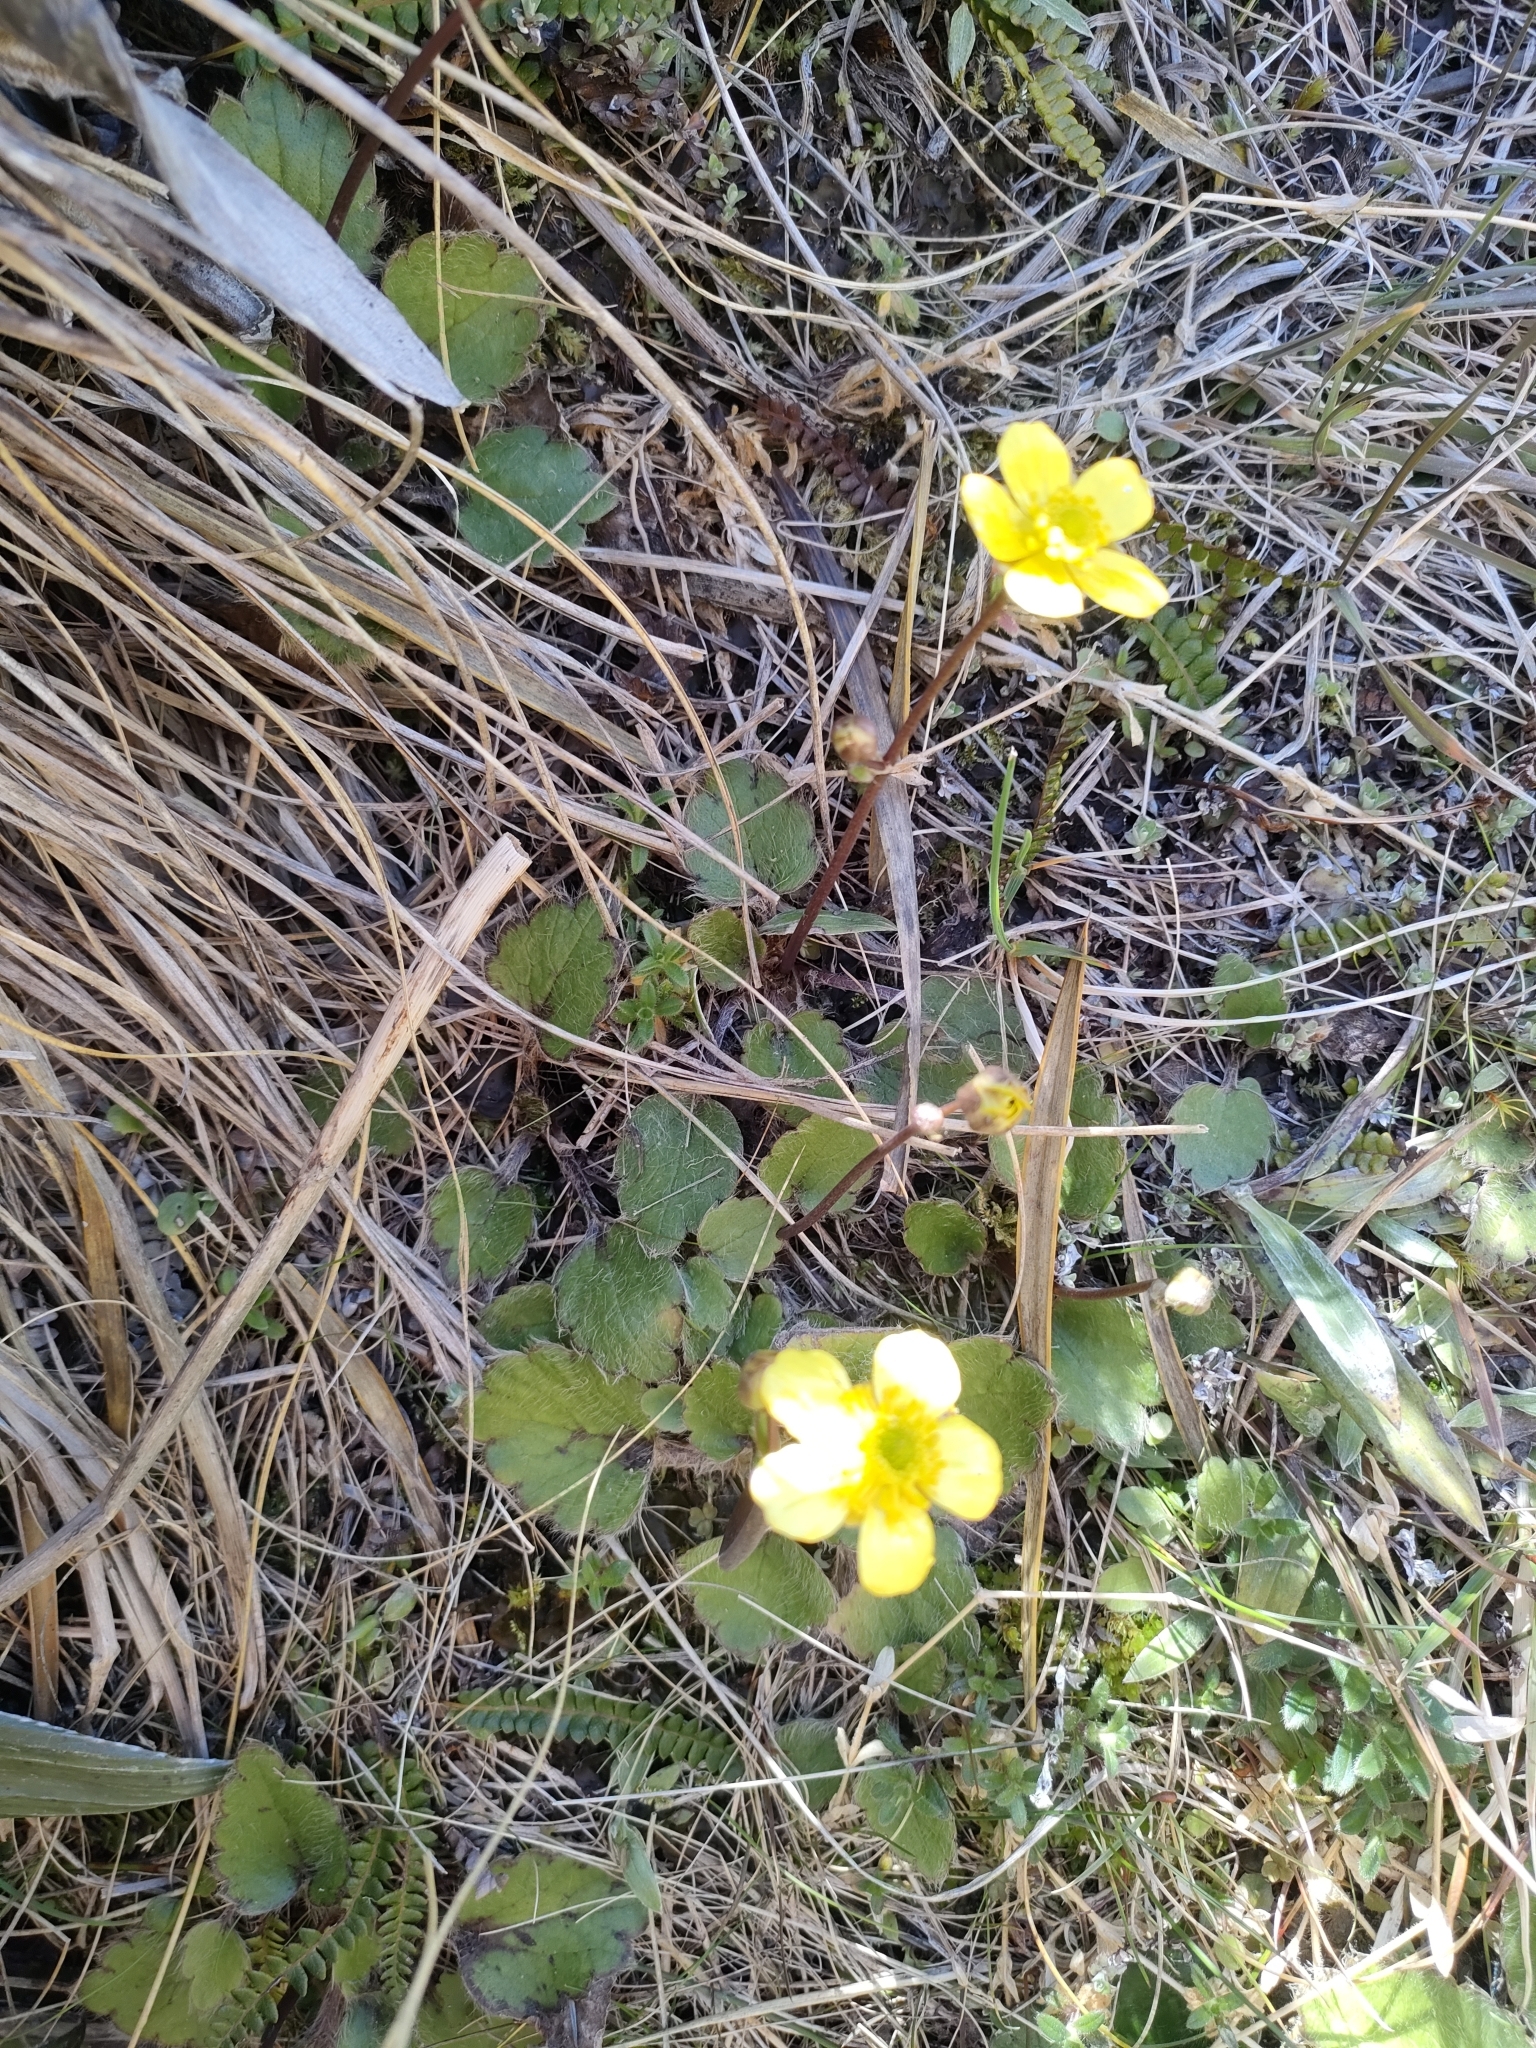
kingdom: Plantae
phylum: Tracheophyta
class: Magnoliopsida
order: Ranunculales
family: Ranunculaceae
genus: Ranunculus
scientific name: Ranunculus insignis
